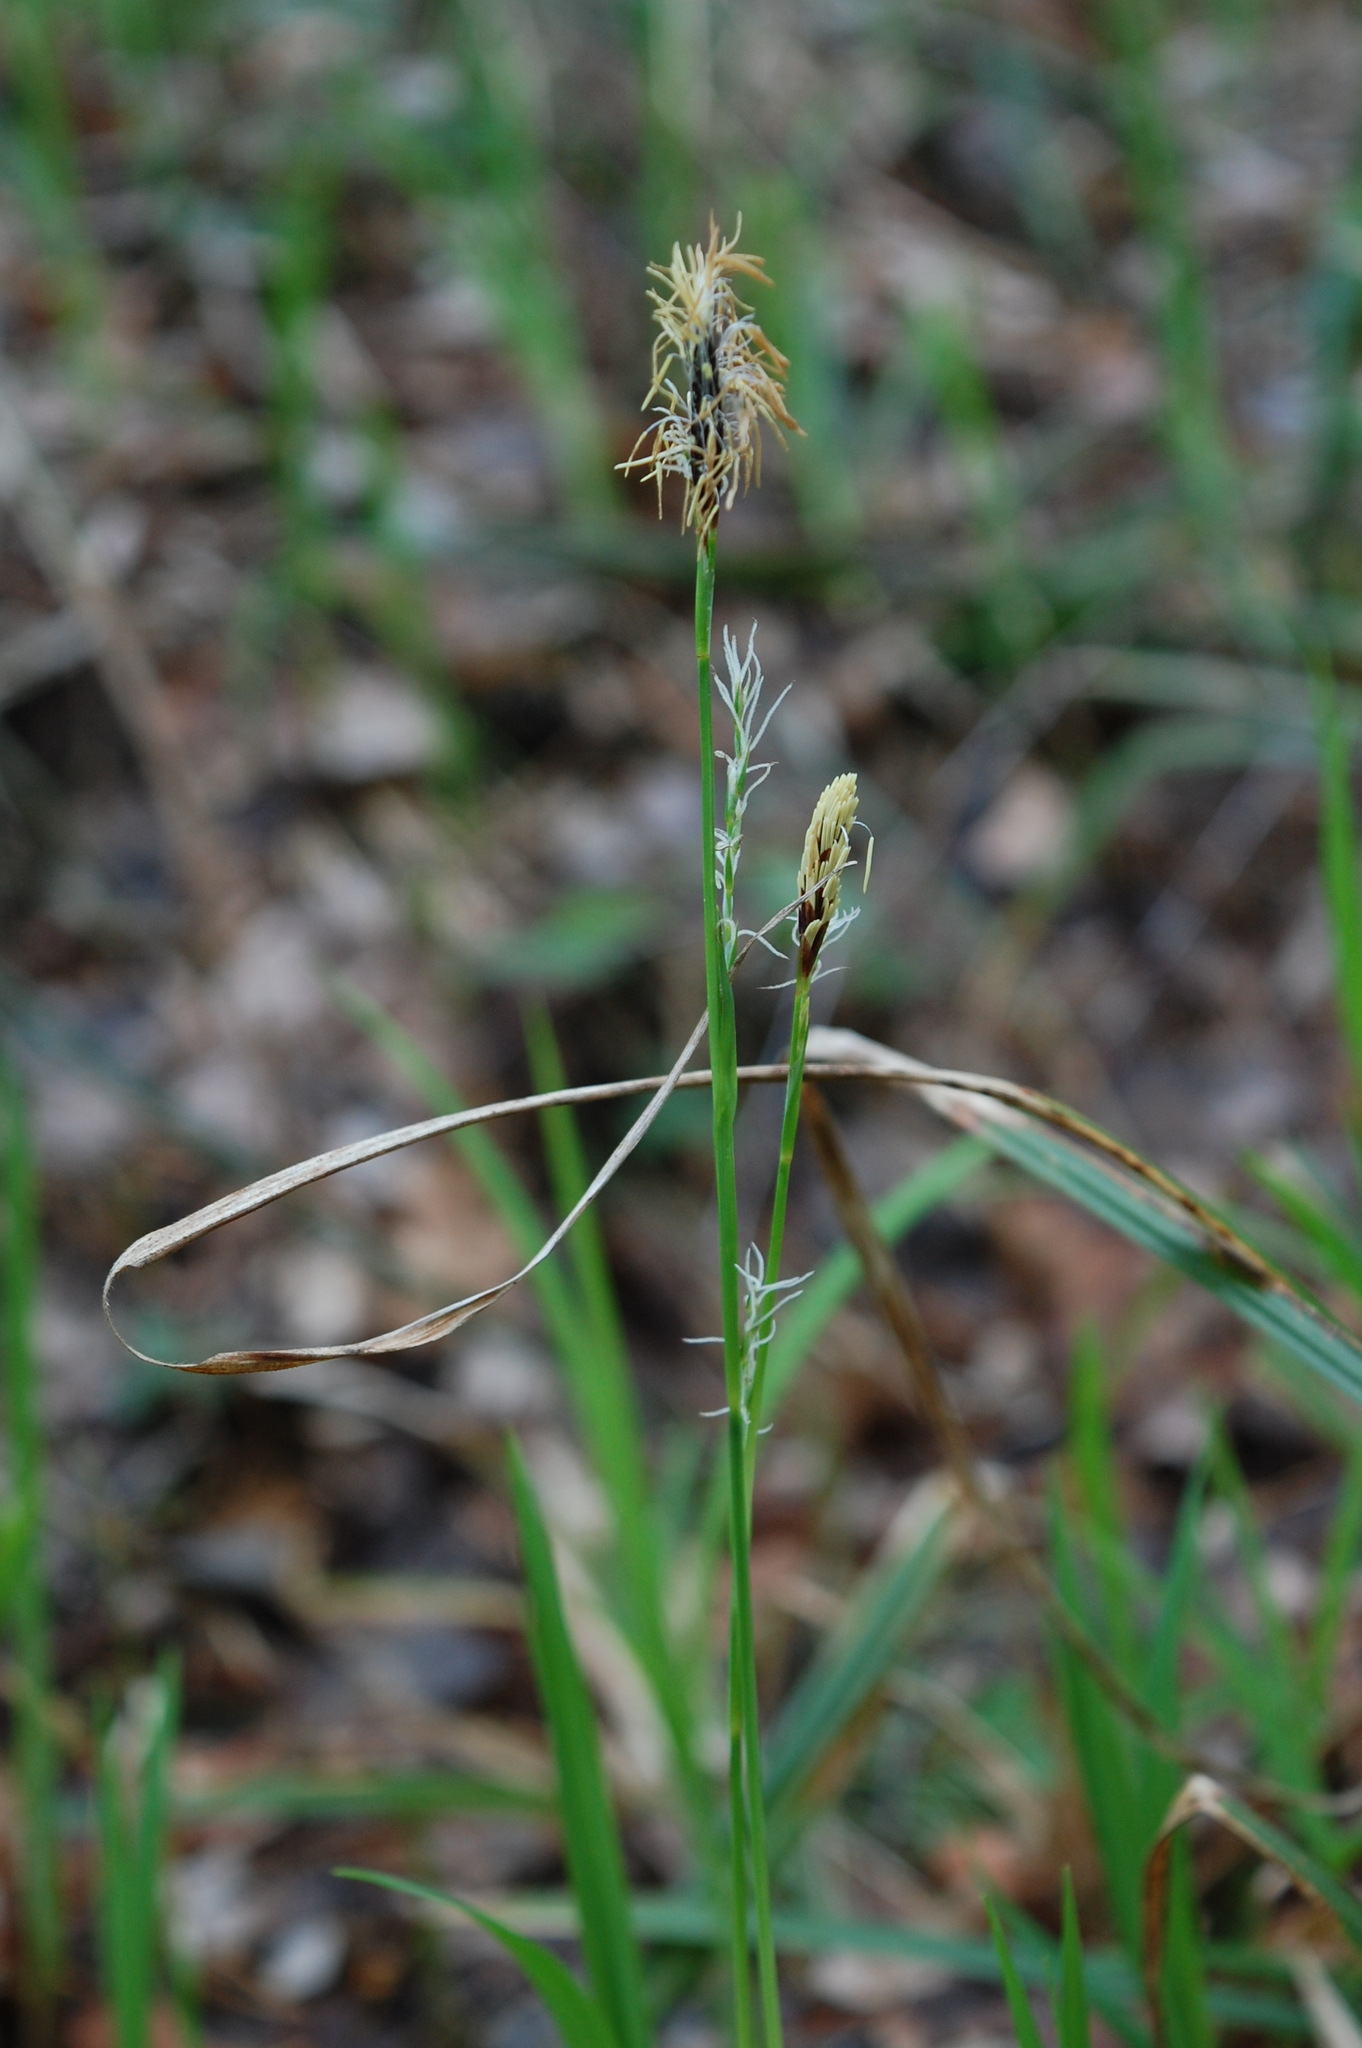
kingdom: Plantae
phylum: Tracheophyta
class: Liliopsida
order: Poales
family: Cyperaceae
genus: Carex
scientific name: Carex pilosa
